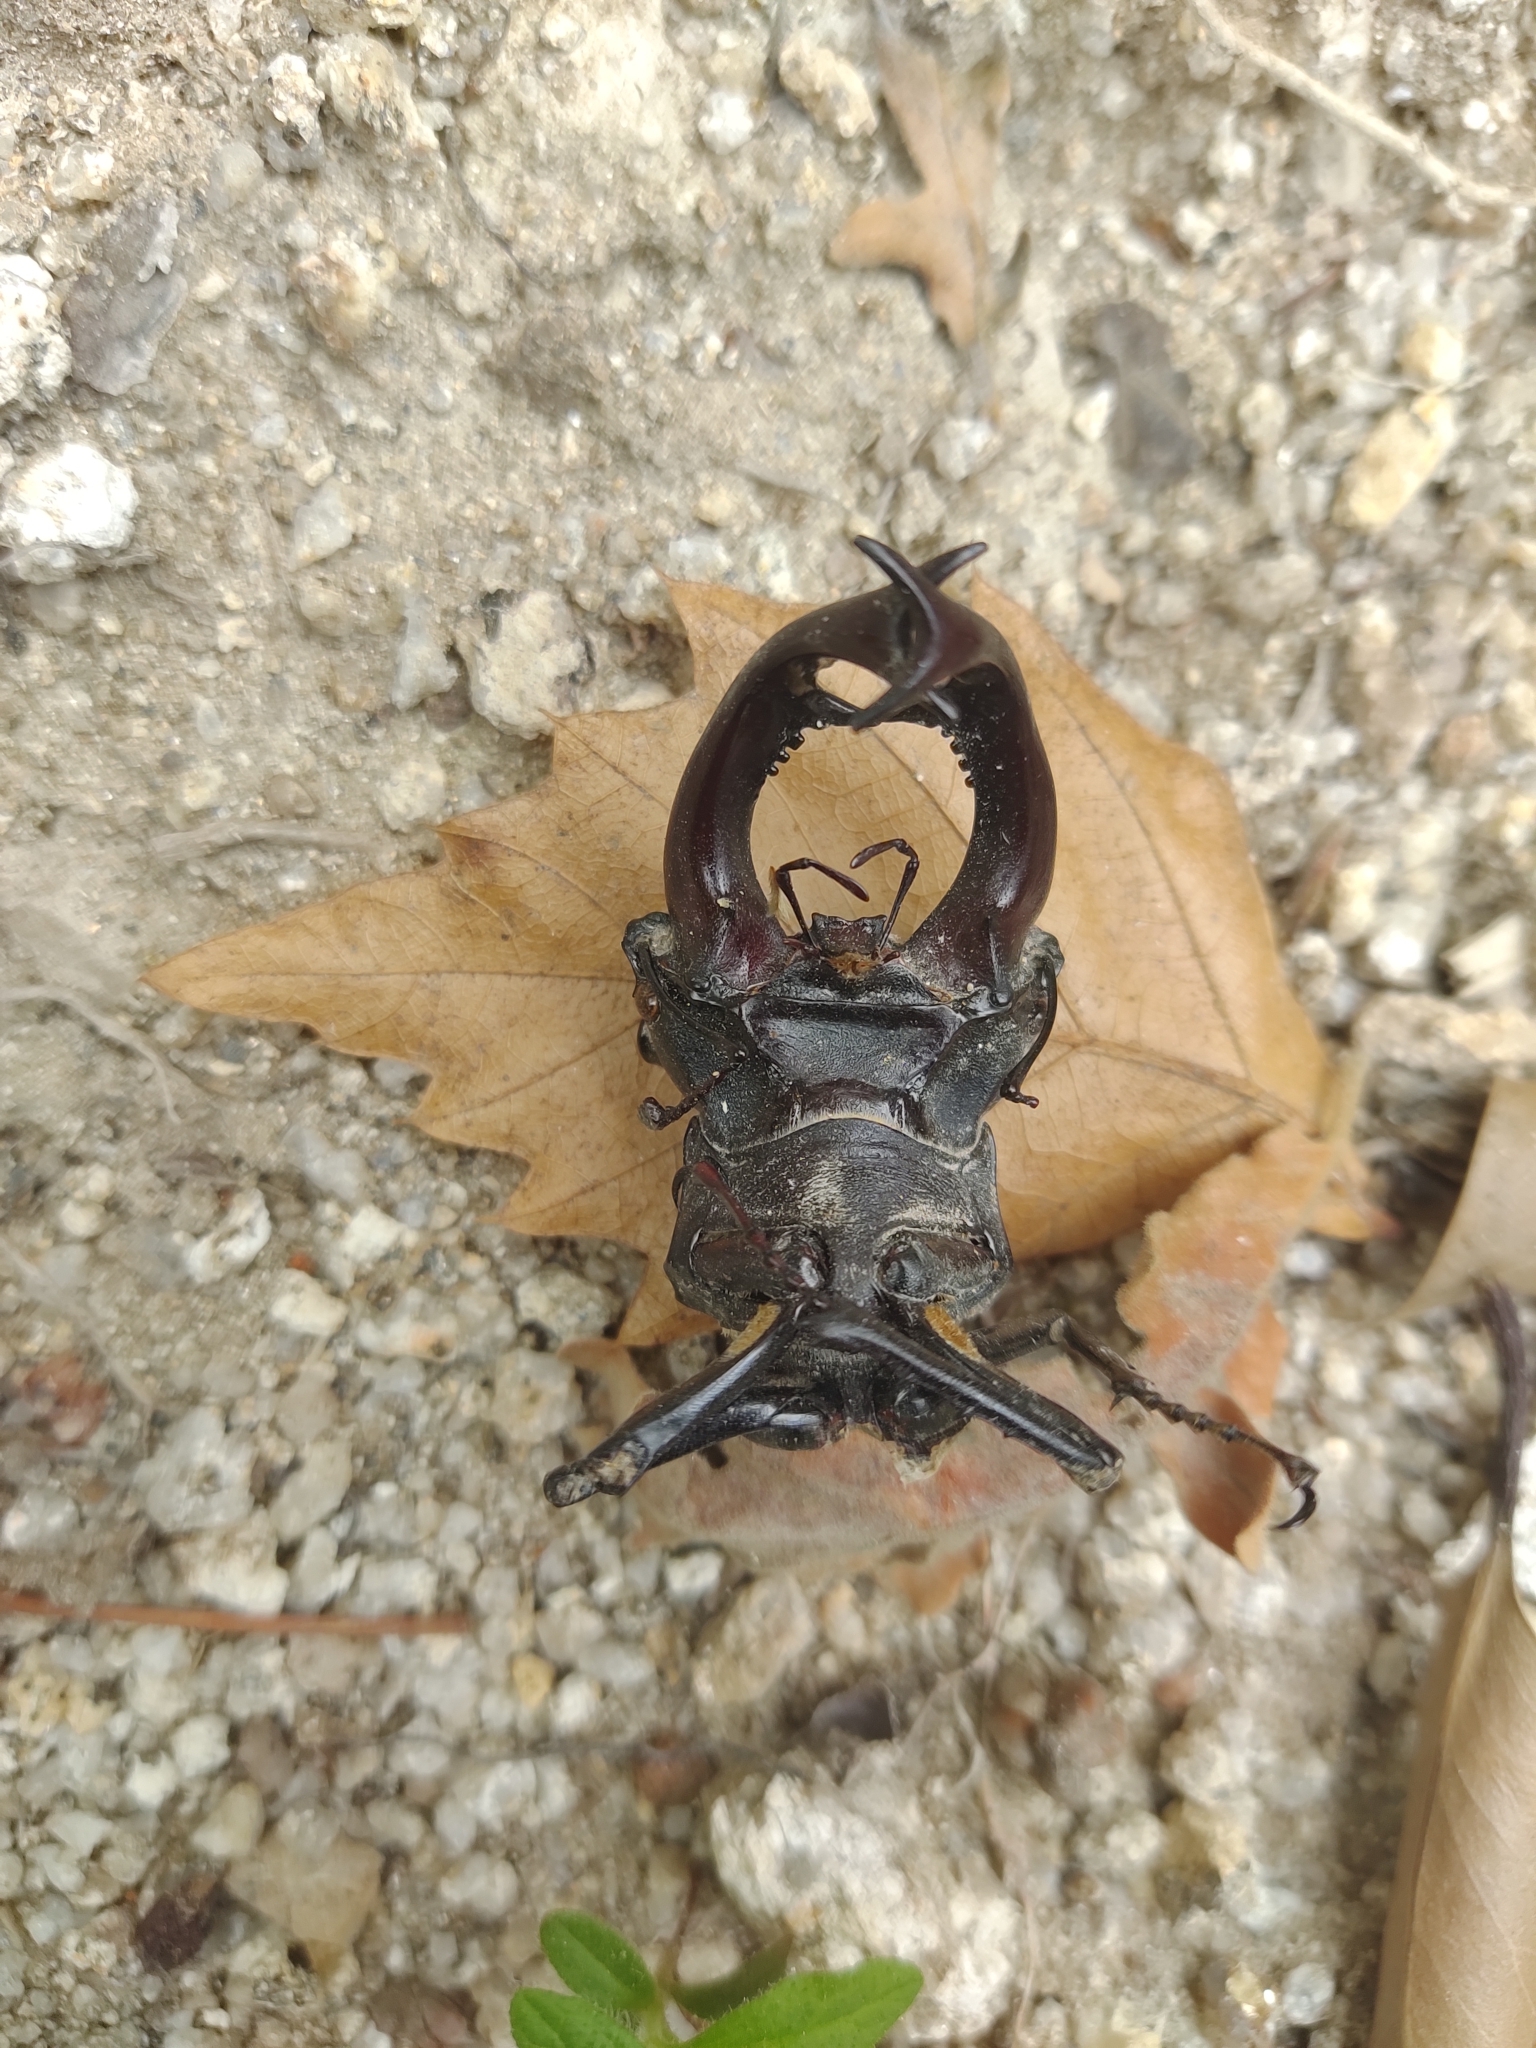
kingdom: Animalia
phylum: Arthropoda
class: Insecta
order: Coleoptera
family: Lucanidae
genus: Lucanus
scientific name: Lucanus cervus
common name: Stag beetle
